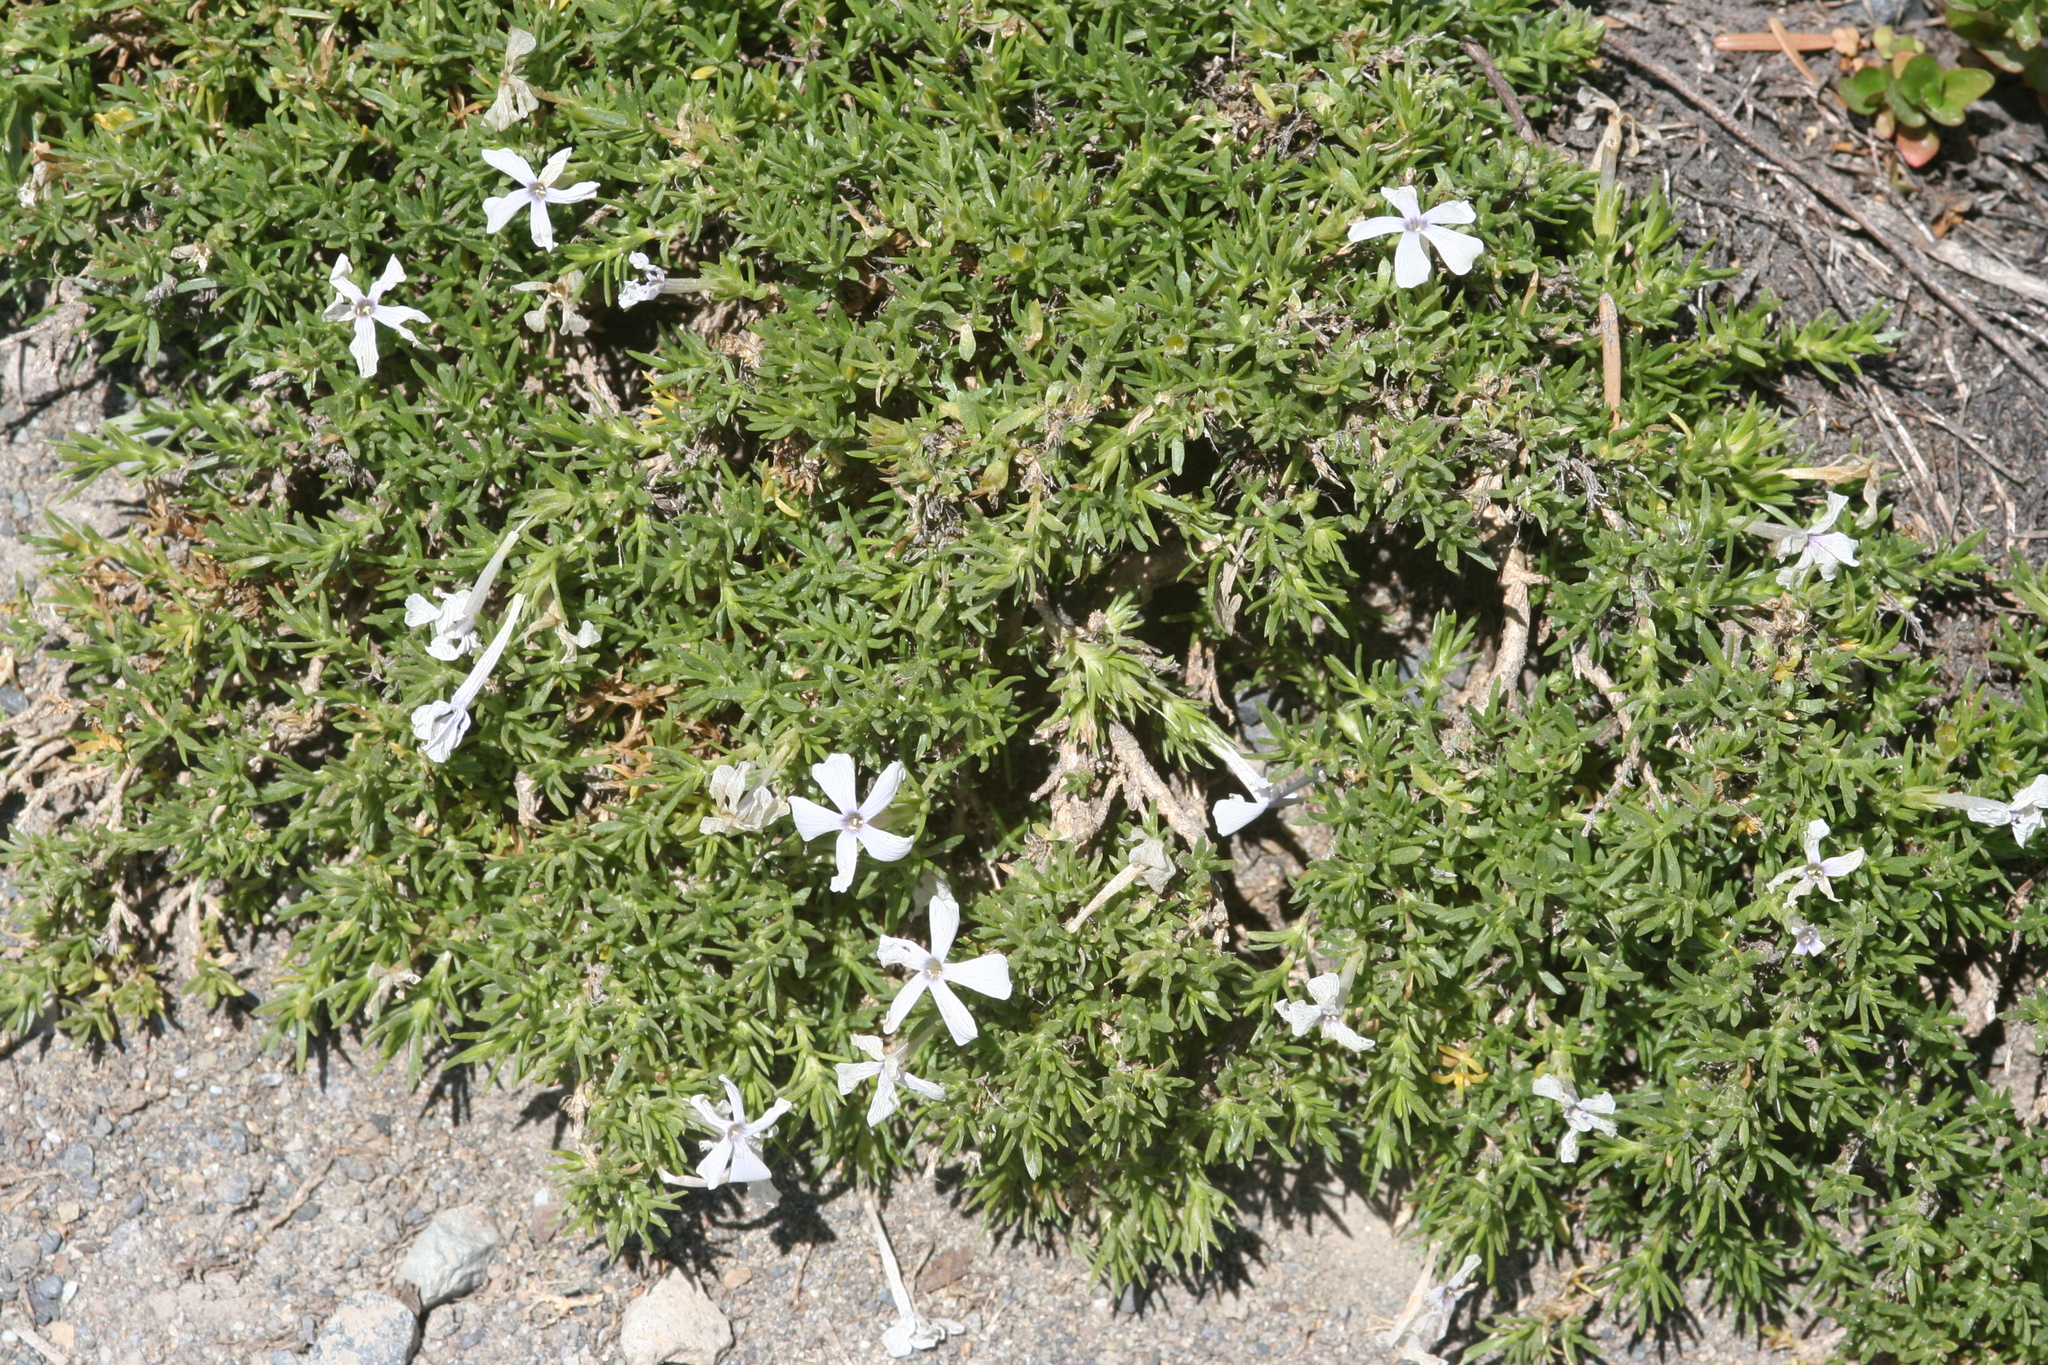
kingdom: Plantae
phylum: Tracheophyta
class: Magnoliopsida
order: Ericales
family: Polemoniaceae
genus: Phlox
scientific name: Phlox diffusa
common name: Mat phlox
